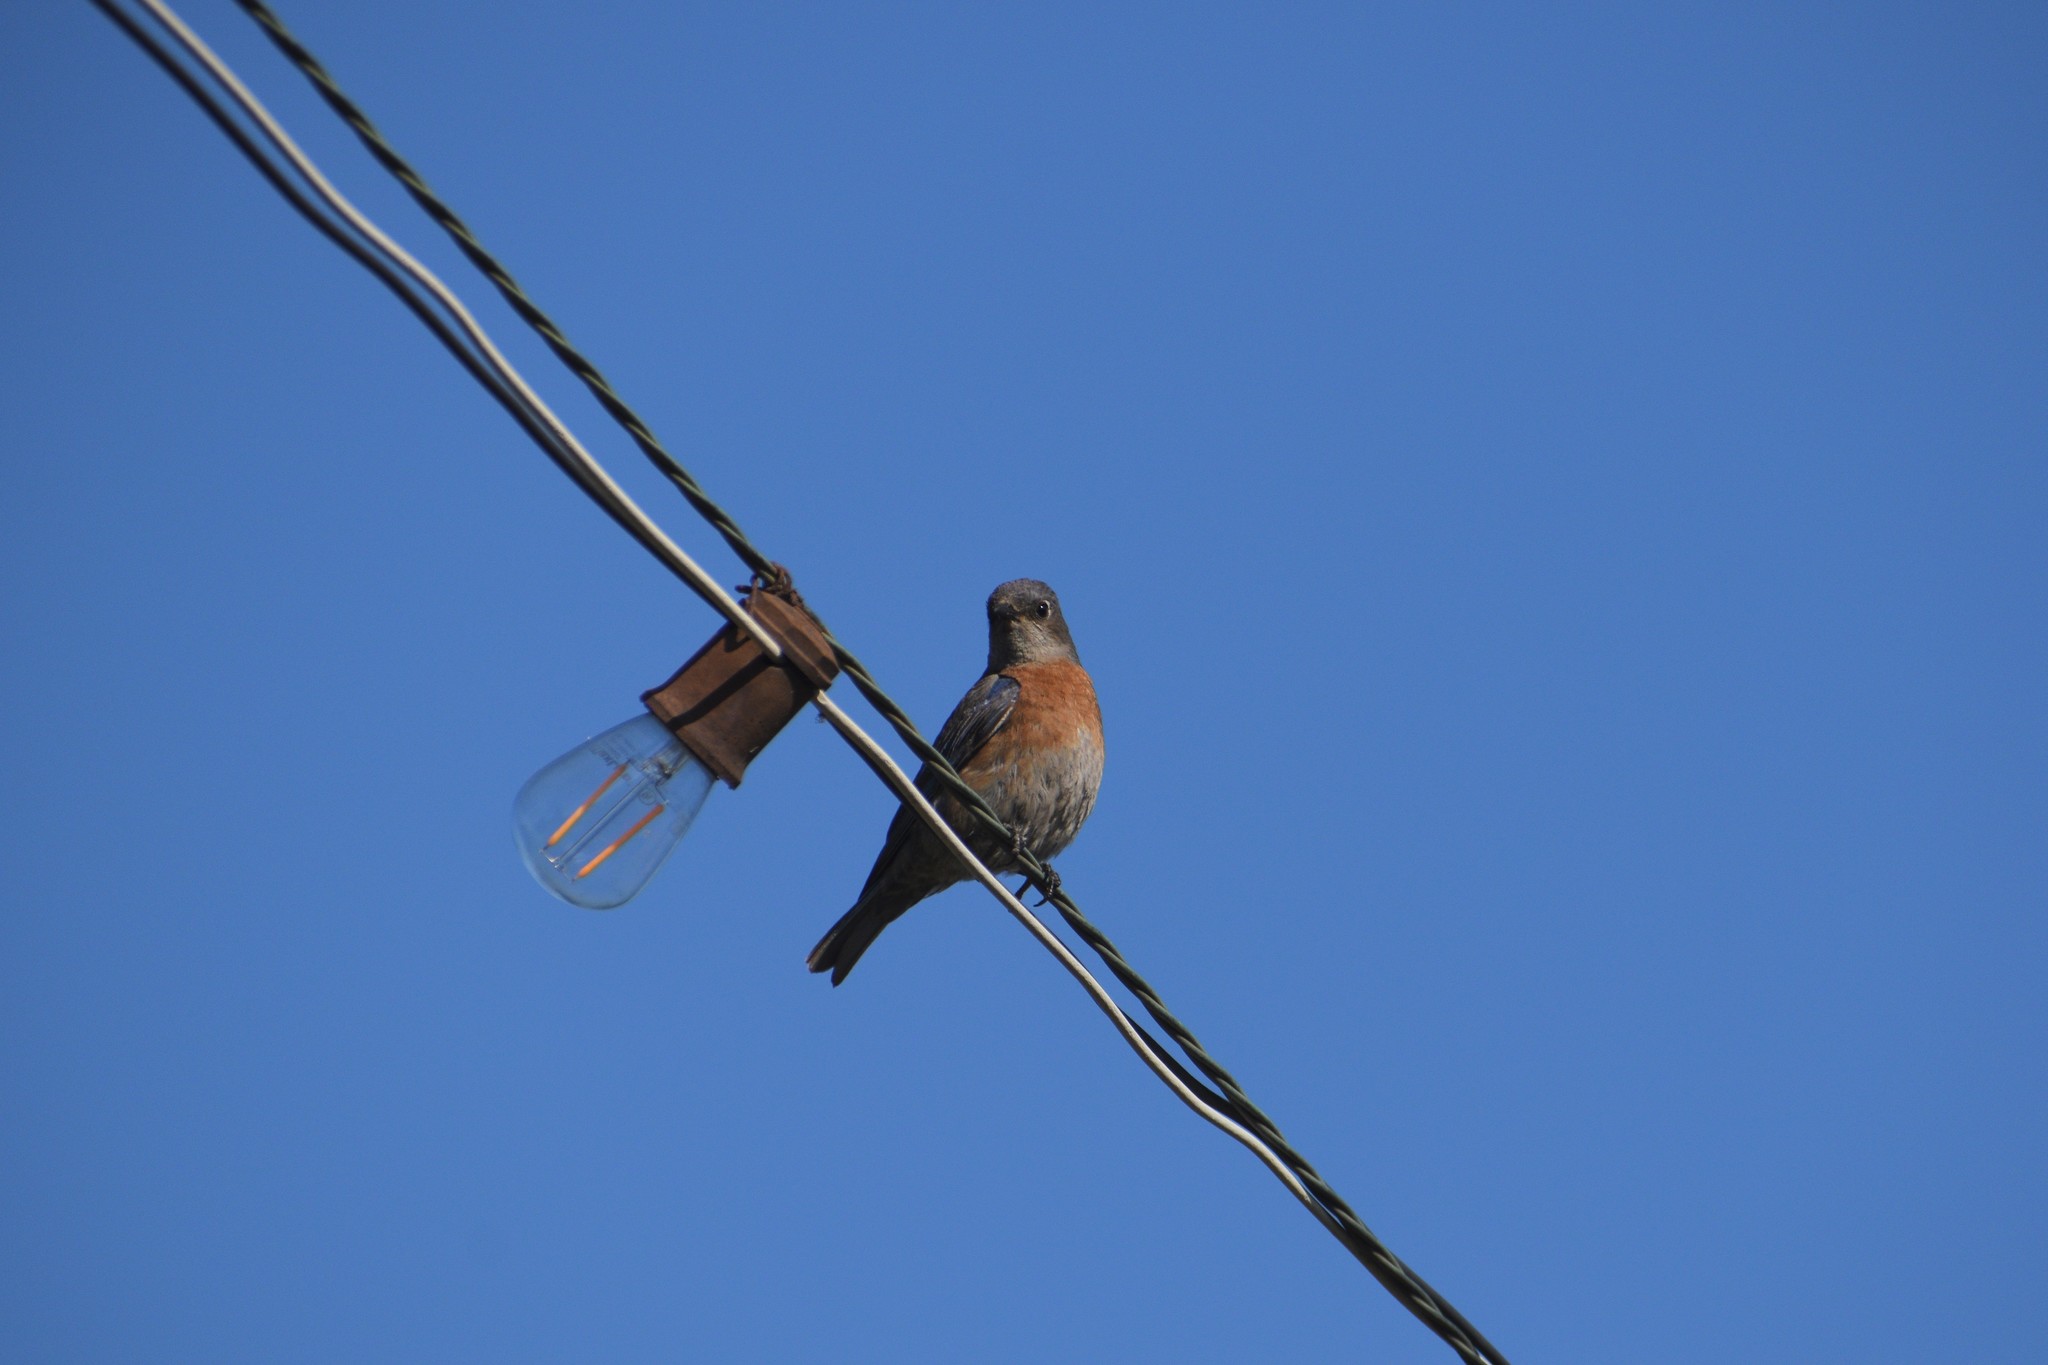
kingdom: Animalia
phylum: Chordata
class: Aves
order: Passeriformes
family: Turdidae
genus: Sialia
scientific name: Sialia mexicana
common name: Western bluebird
